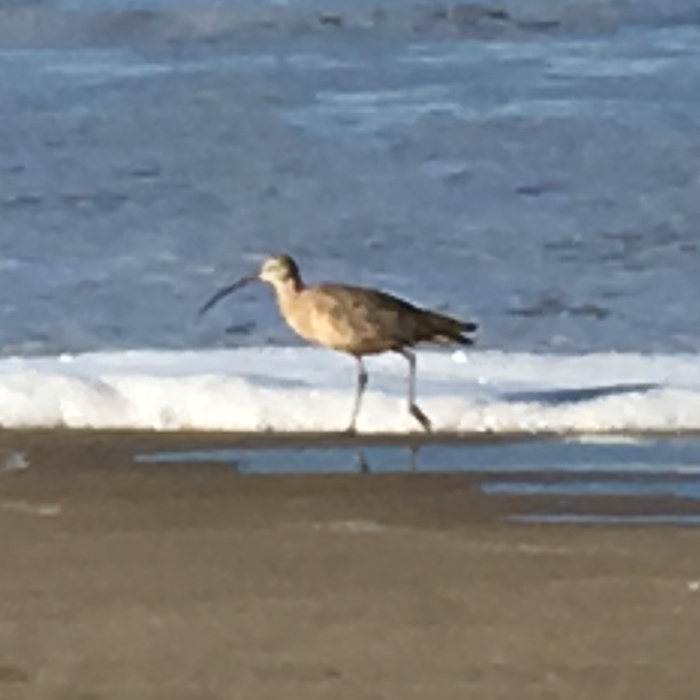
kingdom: Animalia
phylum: Chordata
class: Aves
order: Charadriiformes
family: Scolopacidae
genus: Numenius
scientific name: Numenius americanus
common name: Long-billed curlew
